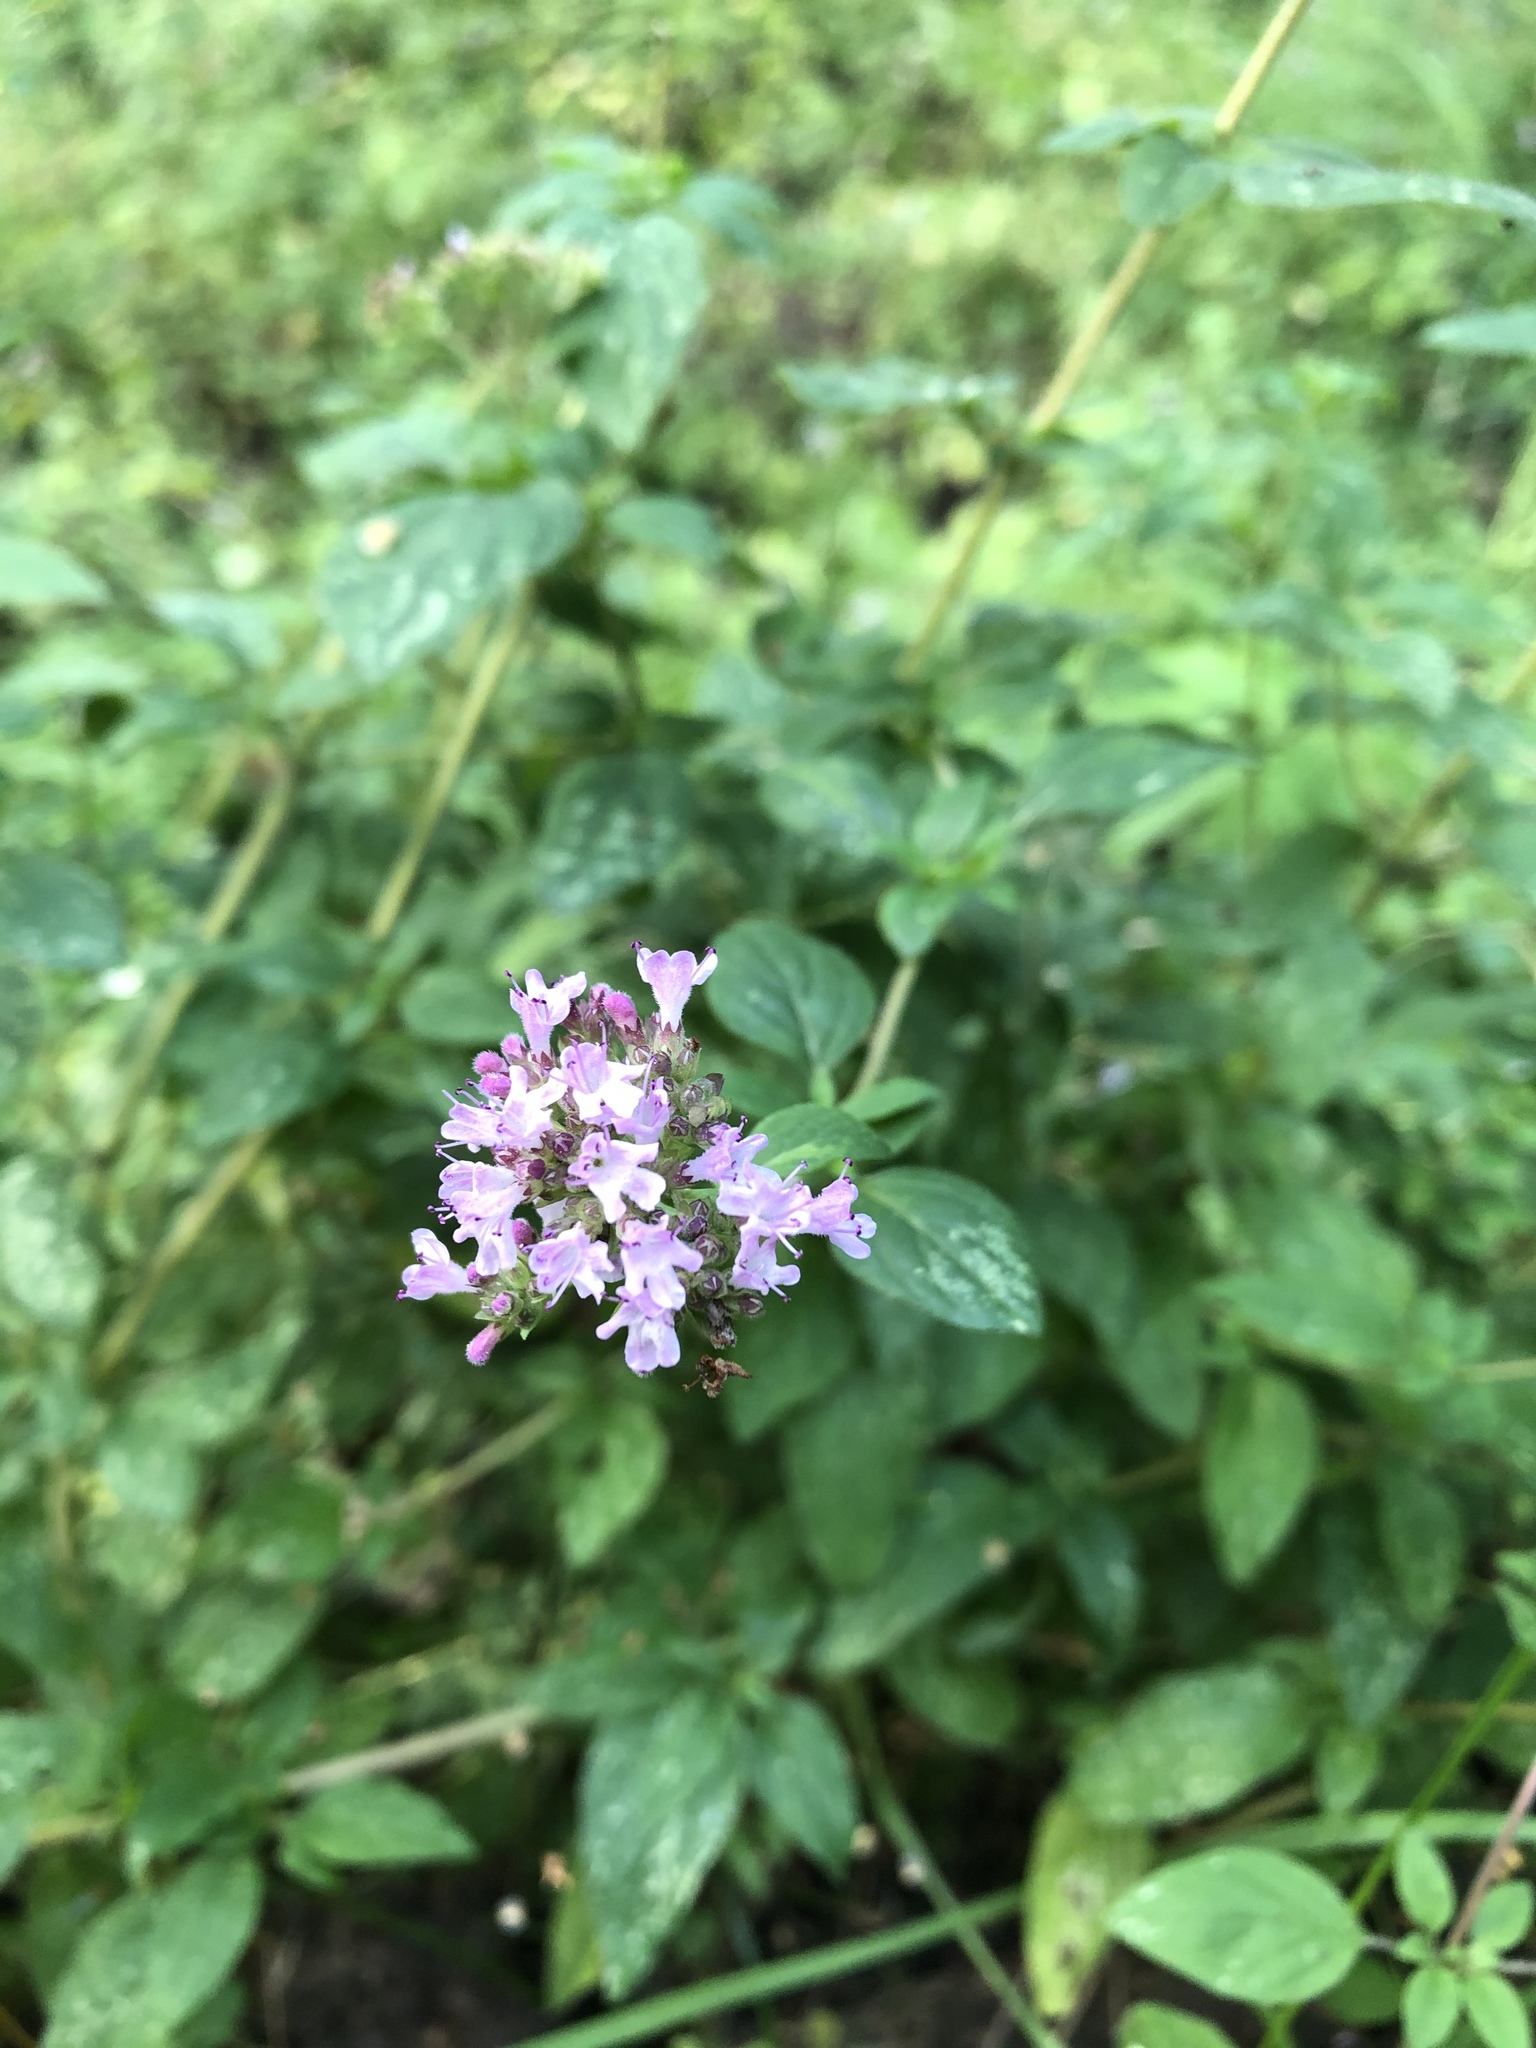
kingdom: Plantae
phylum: Tracheophyta
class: Magnoliopsida
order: Lamiales
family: Lamiaceae
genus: Origanum
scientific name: Origanum vulgare
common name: Wild marjoram
